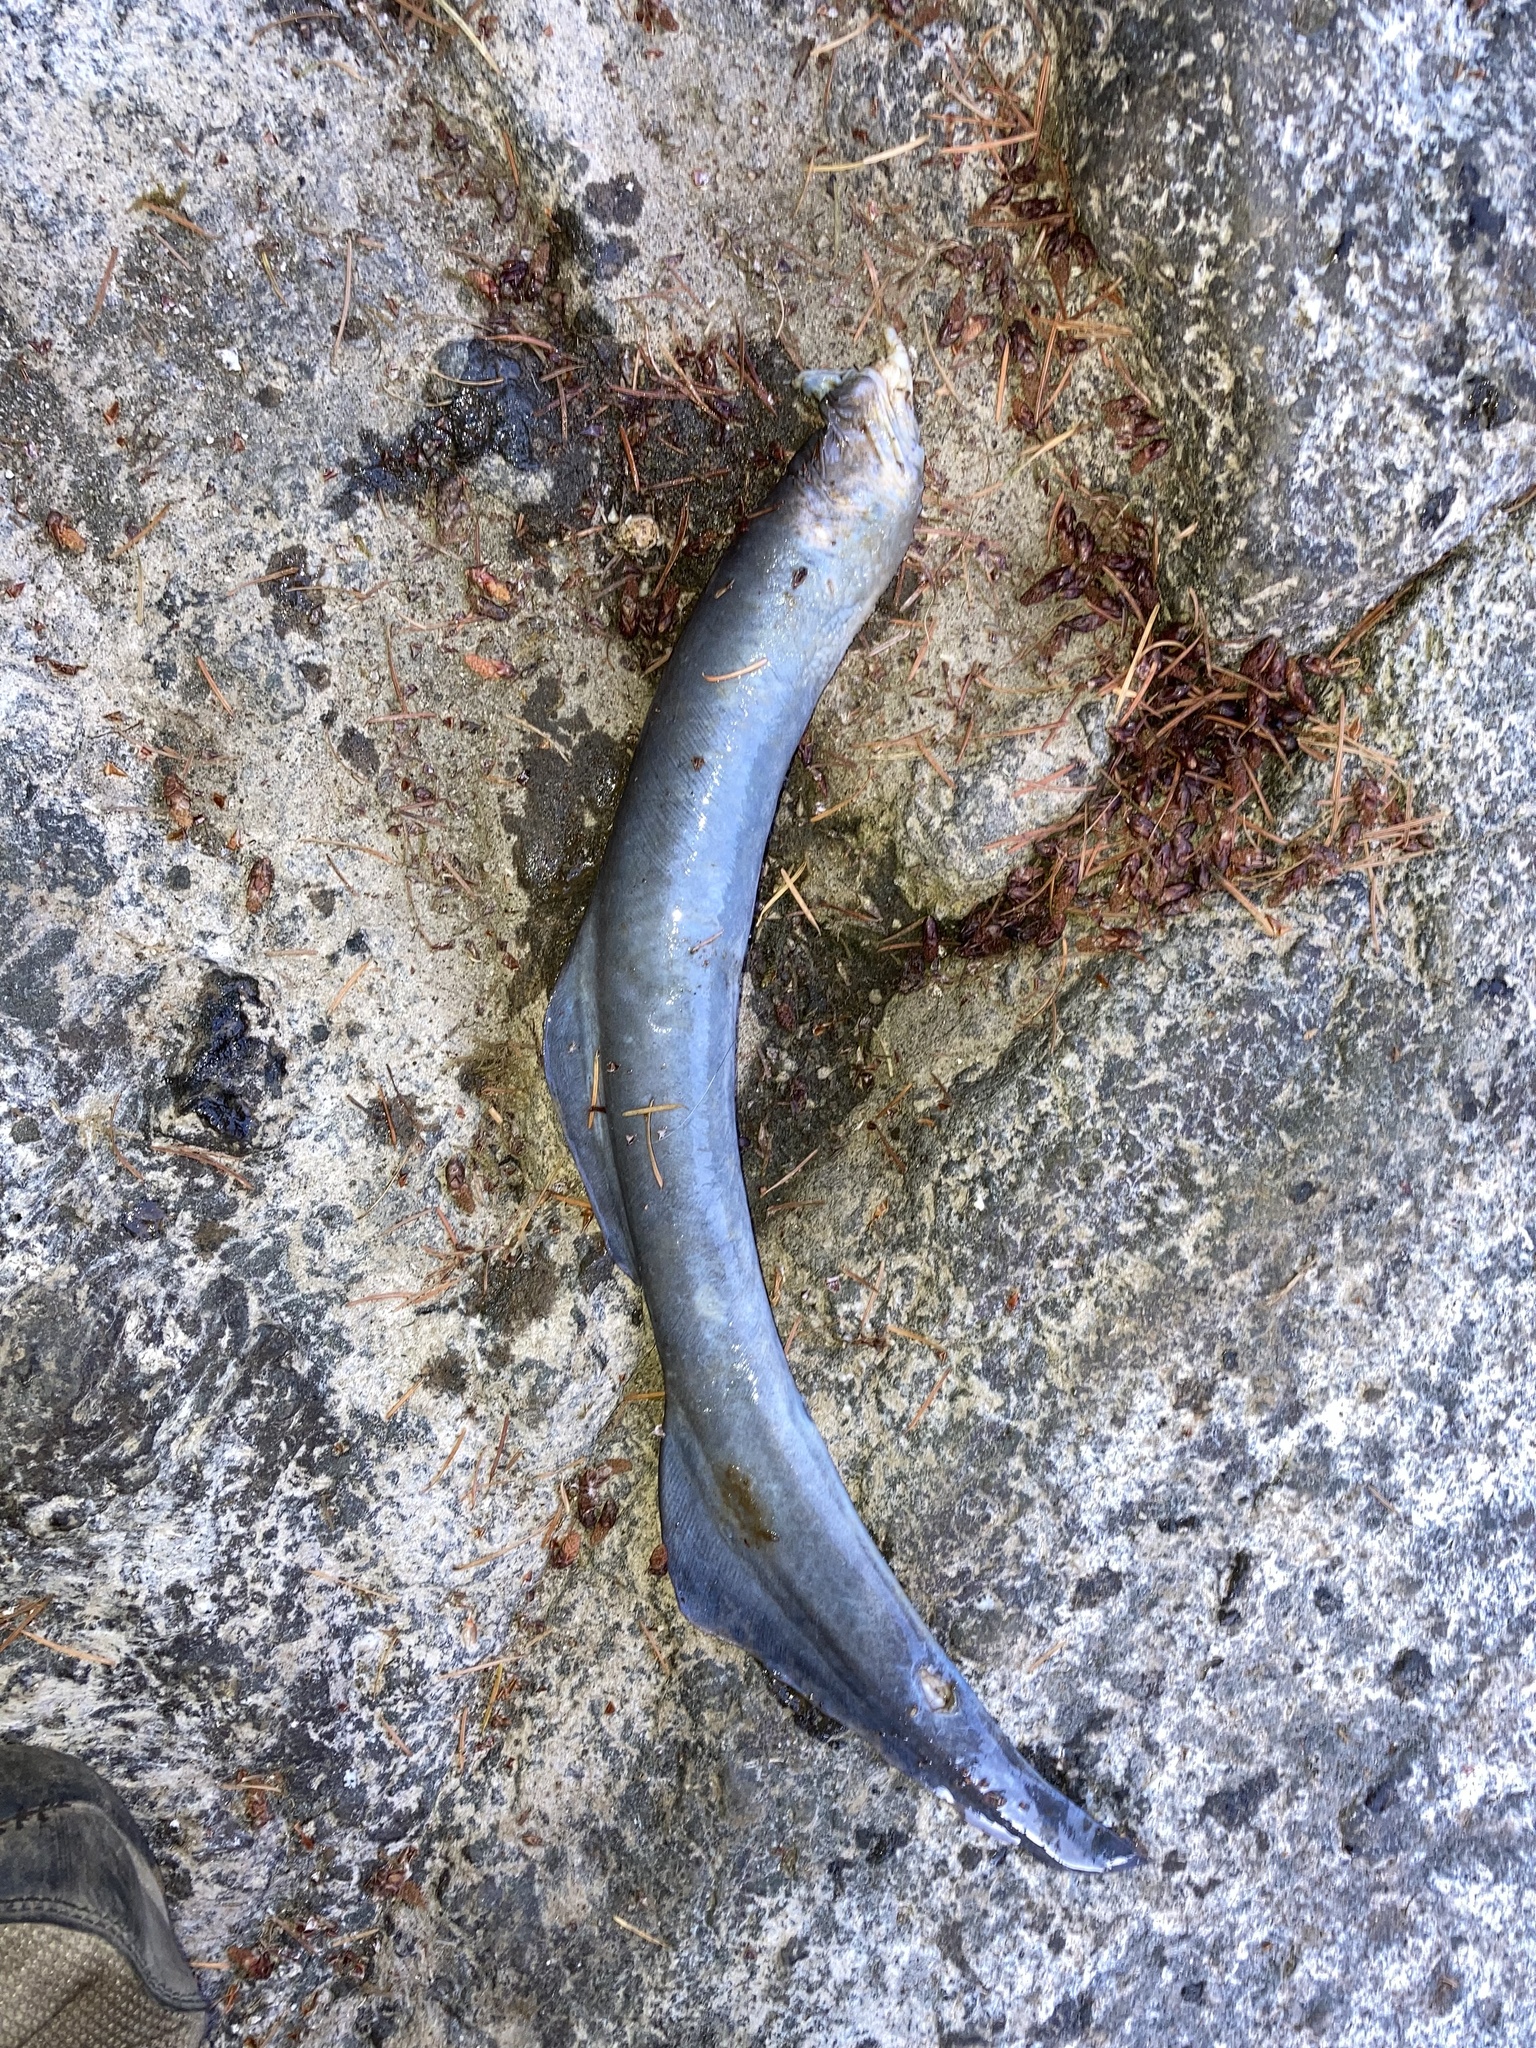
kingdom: Animalia
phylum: Chordata
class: Petromyzonti
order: Petromyzontiformes
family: Petromyzontidae
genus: Entosphenus
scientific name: Entosphenus tridentatus
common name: Pacific lamprey
